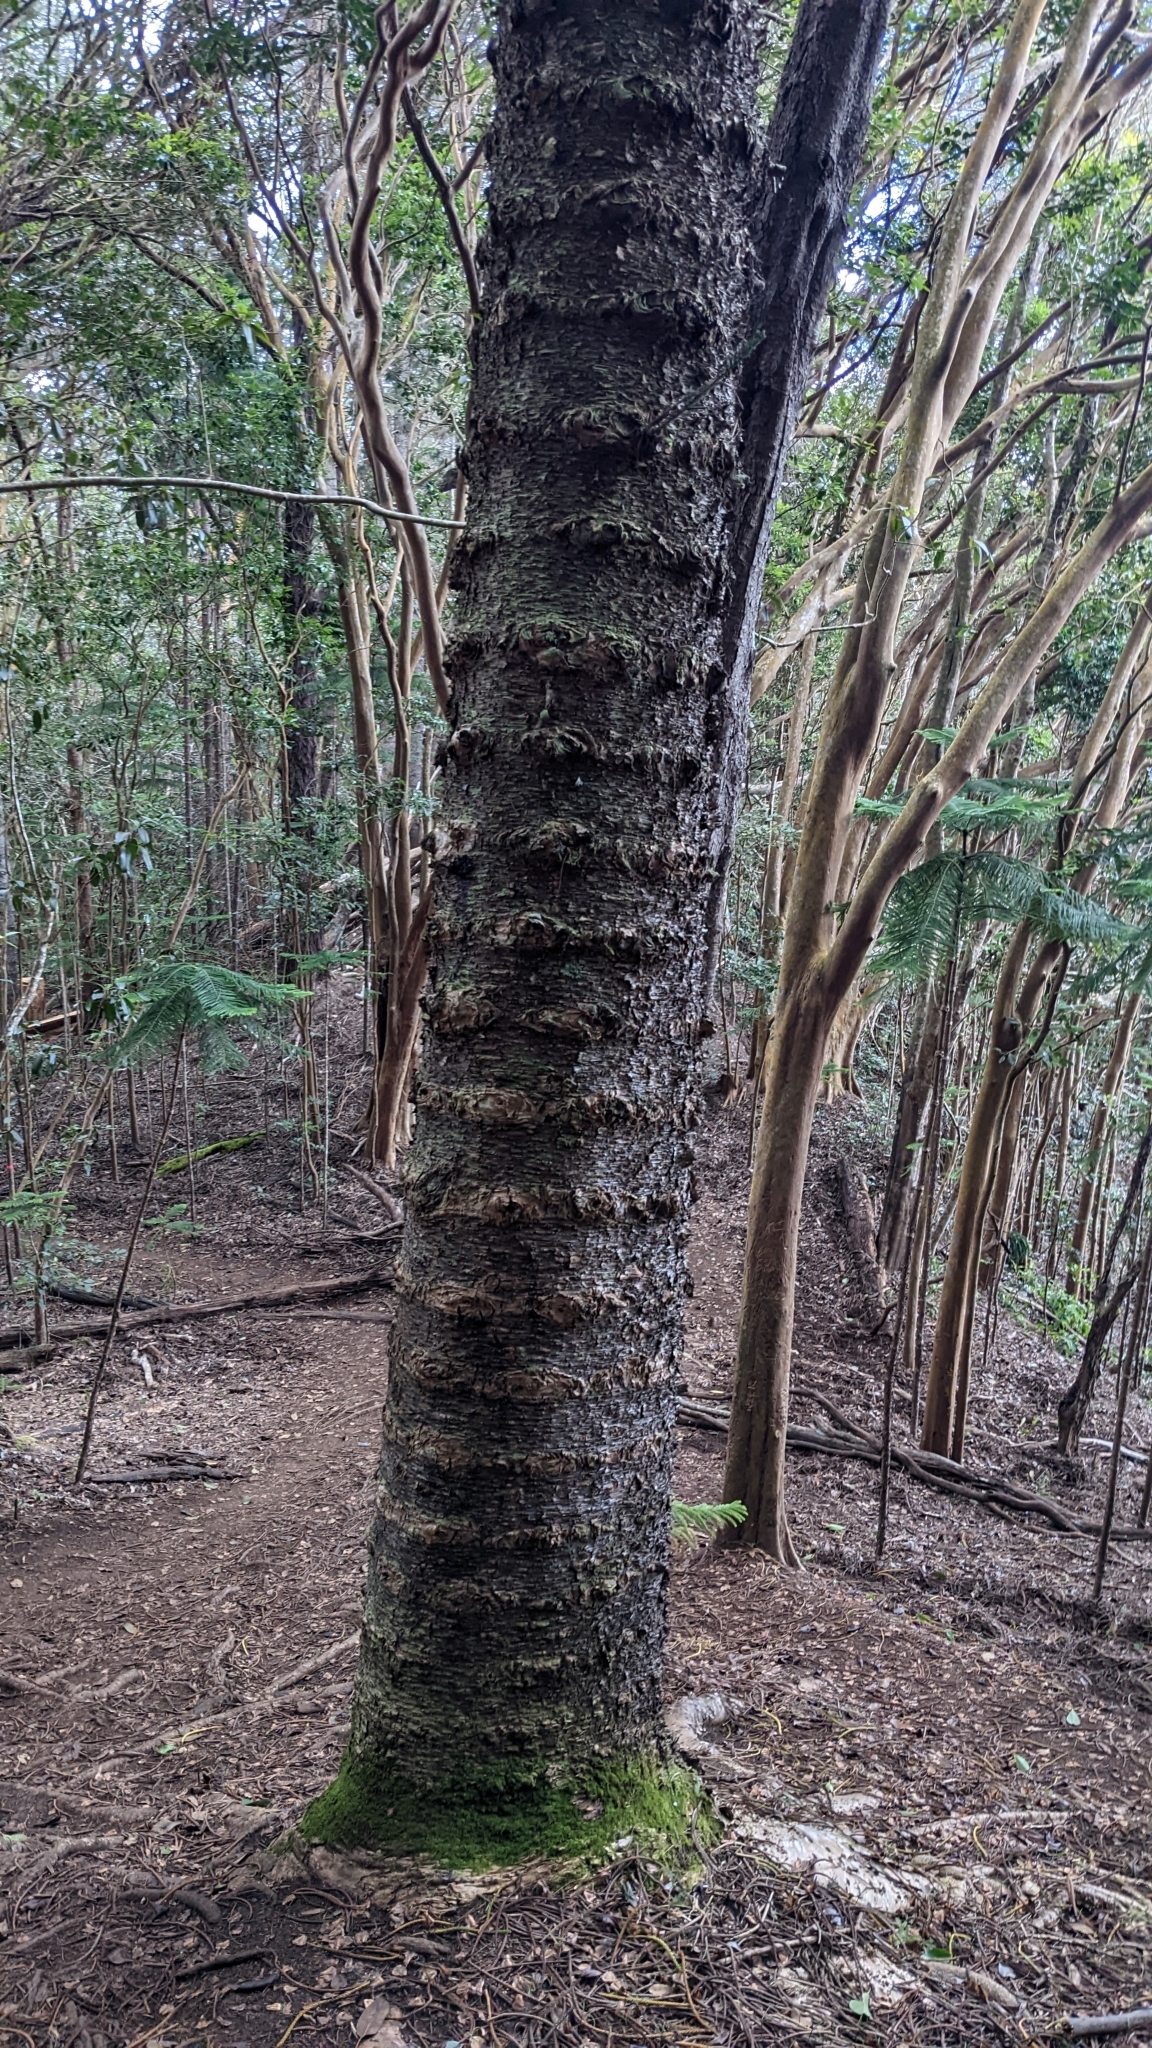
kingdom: Plantae
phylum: Tracheophyta
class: Pinopsida
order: Pinales
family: Araucariaceae
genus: Araucaria
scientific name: Araucaria columnaris
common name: Coral reef araucaria
